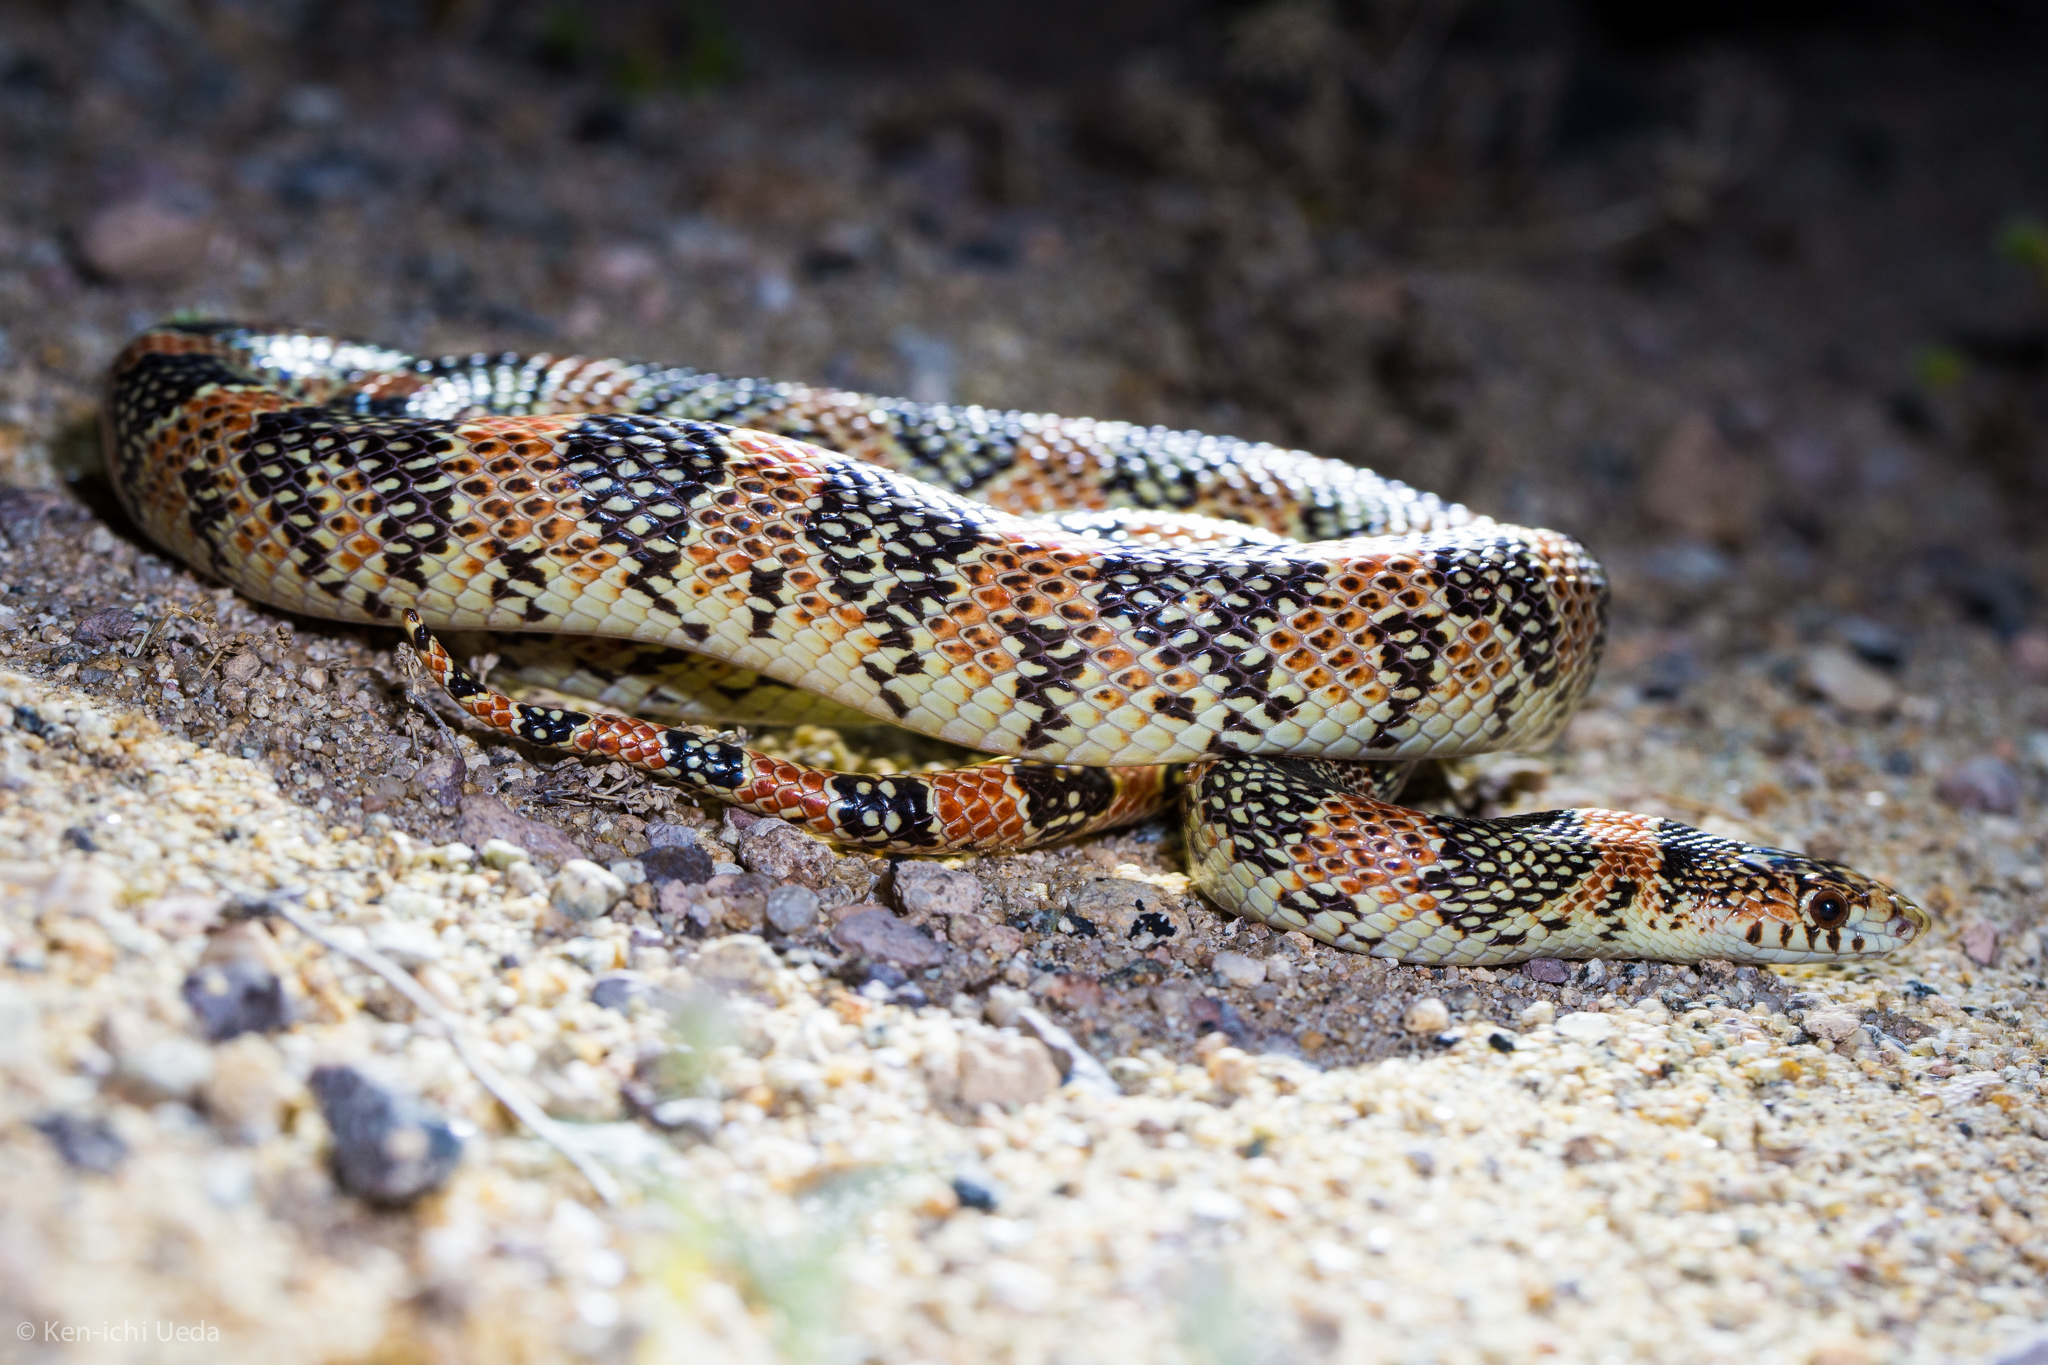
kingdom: Animalia
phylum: Chordata
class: Squamata
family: Colubridae
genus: Rhinocheilus
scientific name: Rhinocheilus lecontei
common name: Longnose snake
